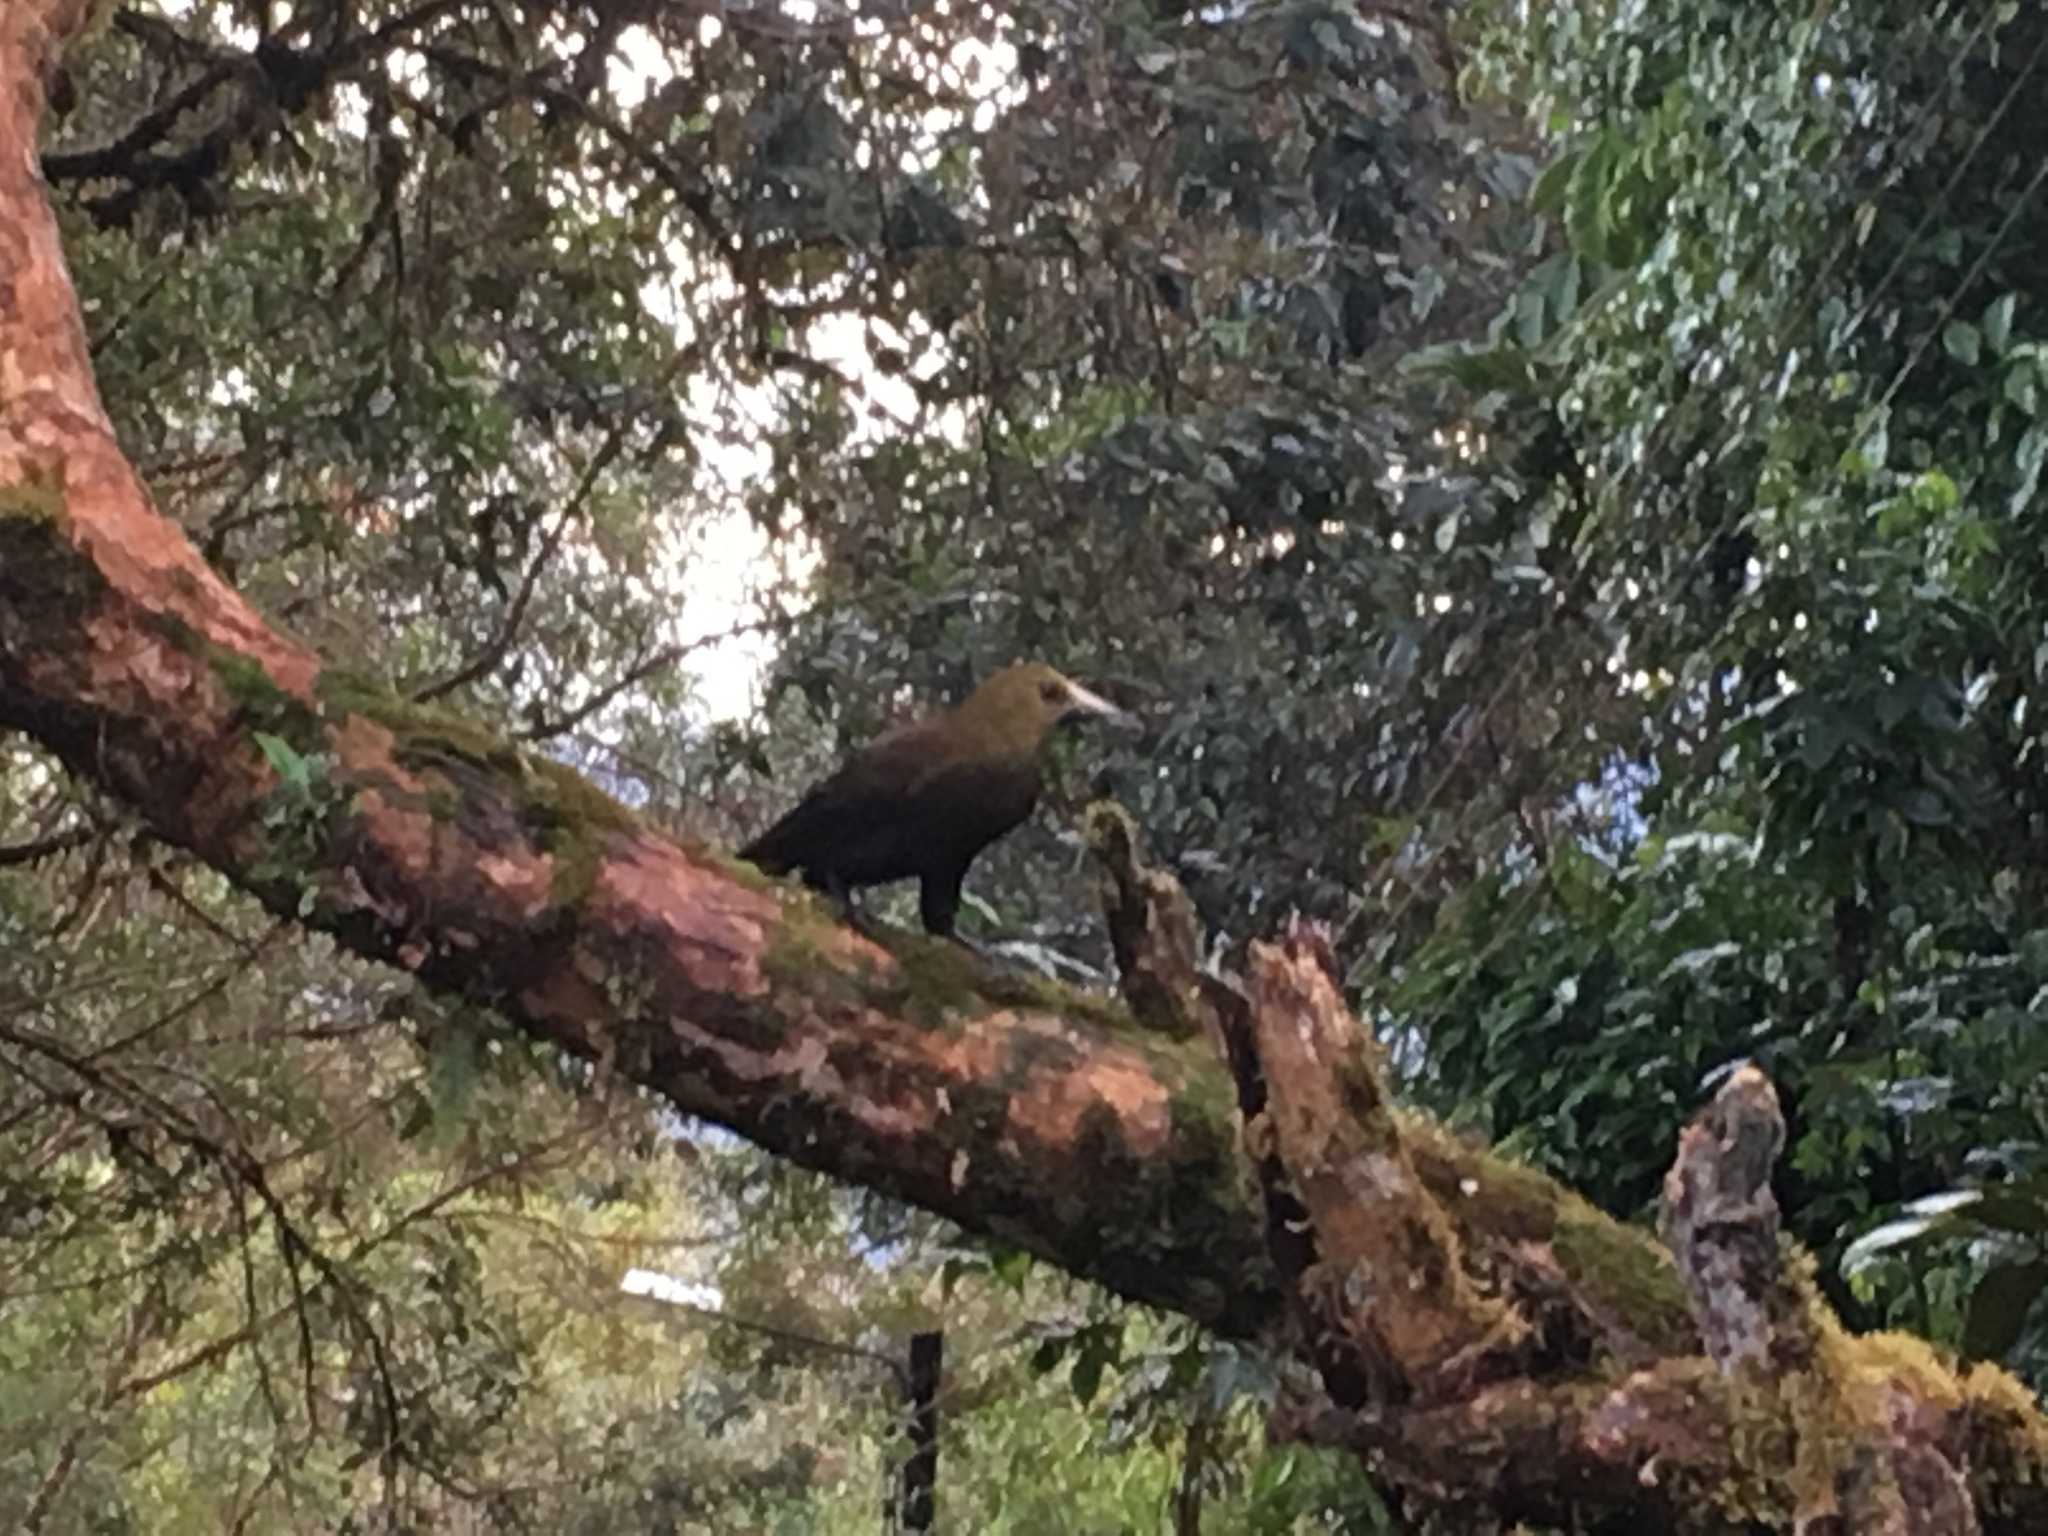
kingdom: Animalia
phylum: Chordata
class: Aves
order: Passeriformes
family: Icteridae
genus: Psarocolius
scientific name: Psarocolius angustifrons
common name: Russet-backed oropendola
